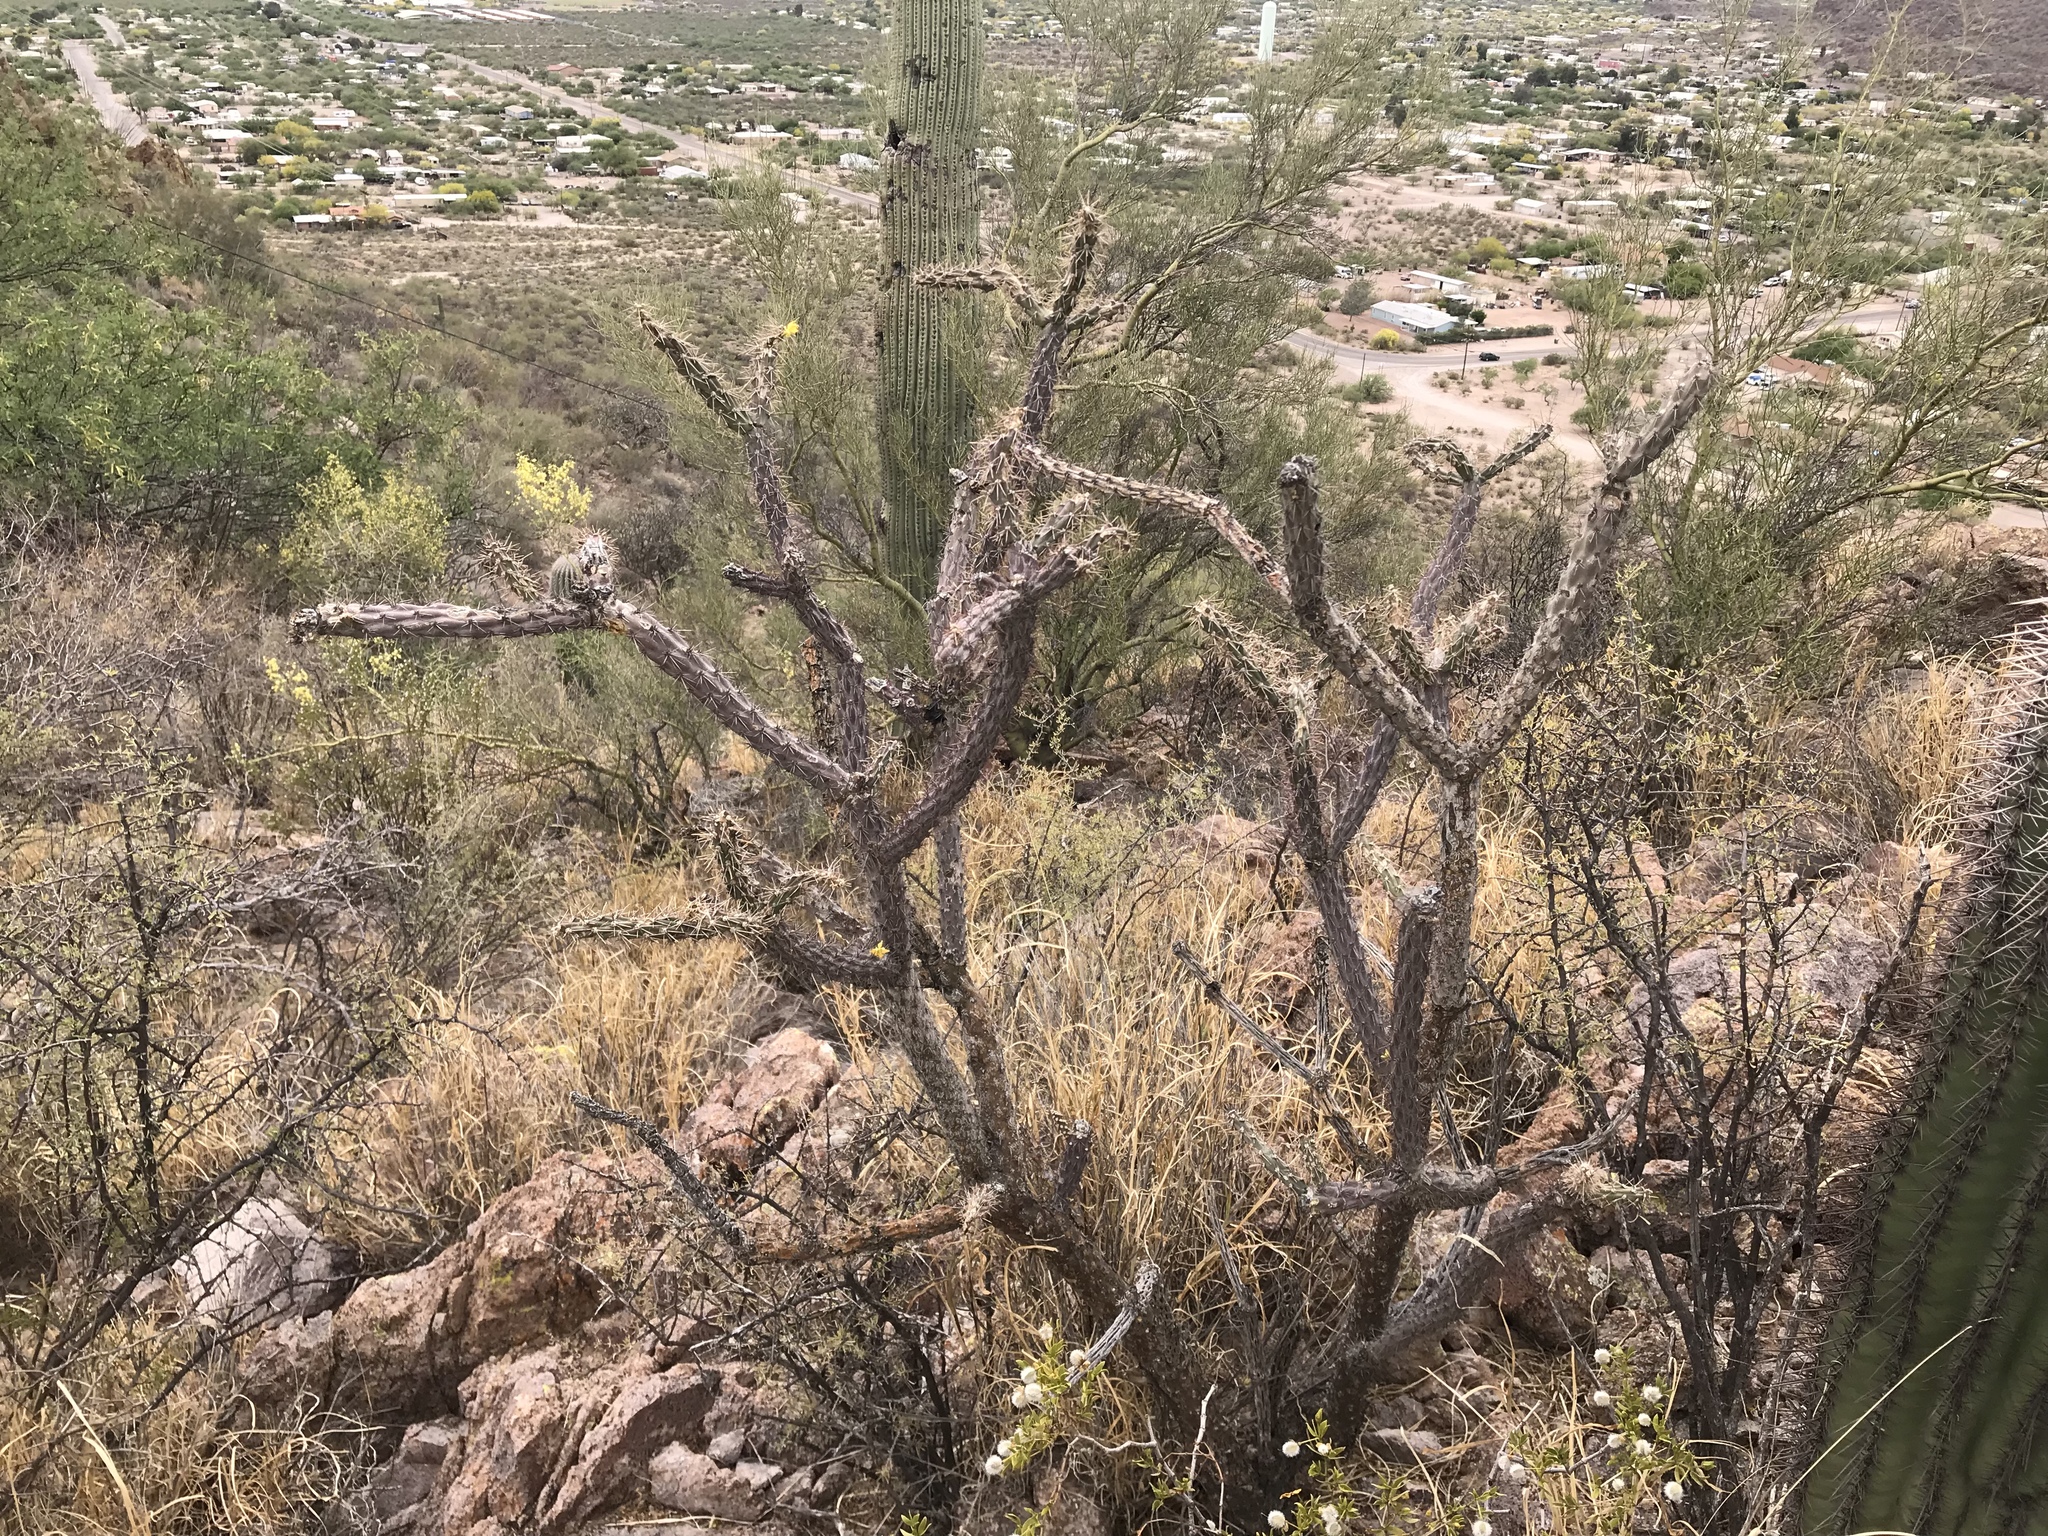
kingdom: Plantae
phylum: Tracheophyta
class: Magnoliopsida
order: Caryophyllales
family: Cactaceae
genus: Cylindropuntia
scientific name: Cylindropuntia acanthocarpa
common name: Buckhorn cholla
